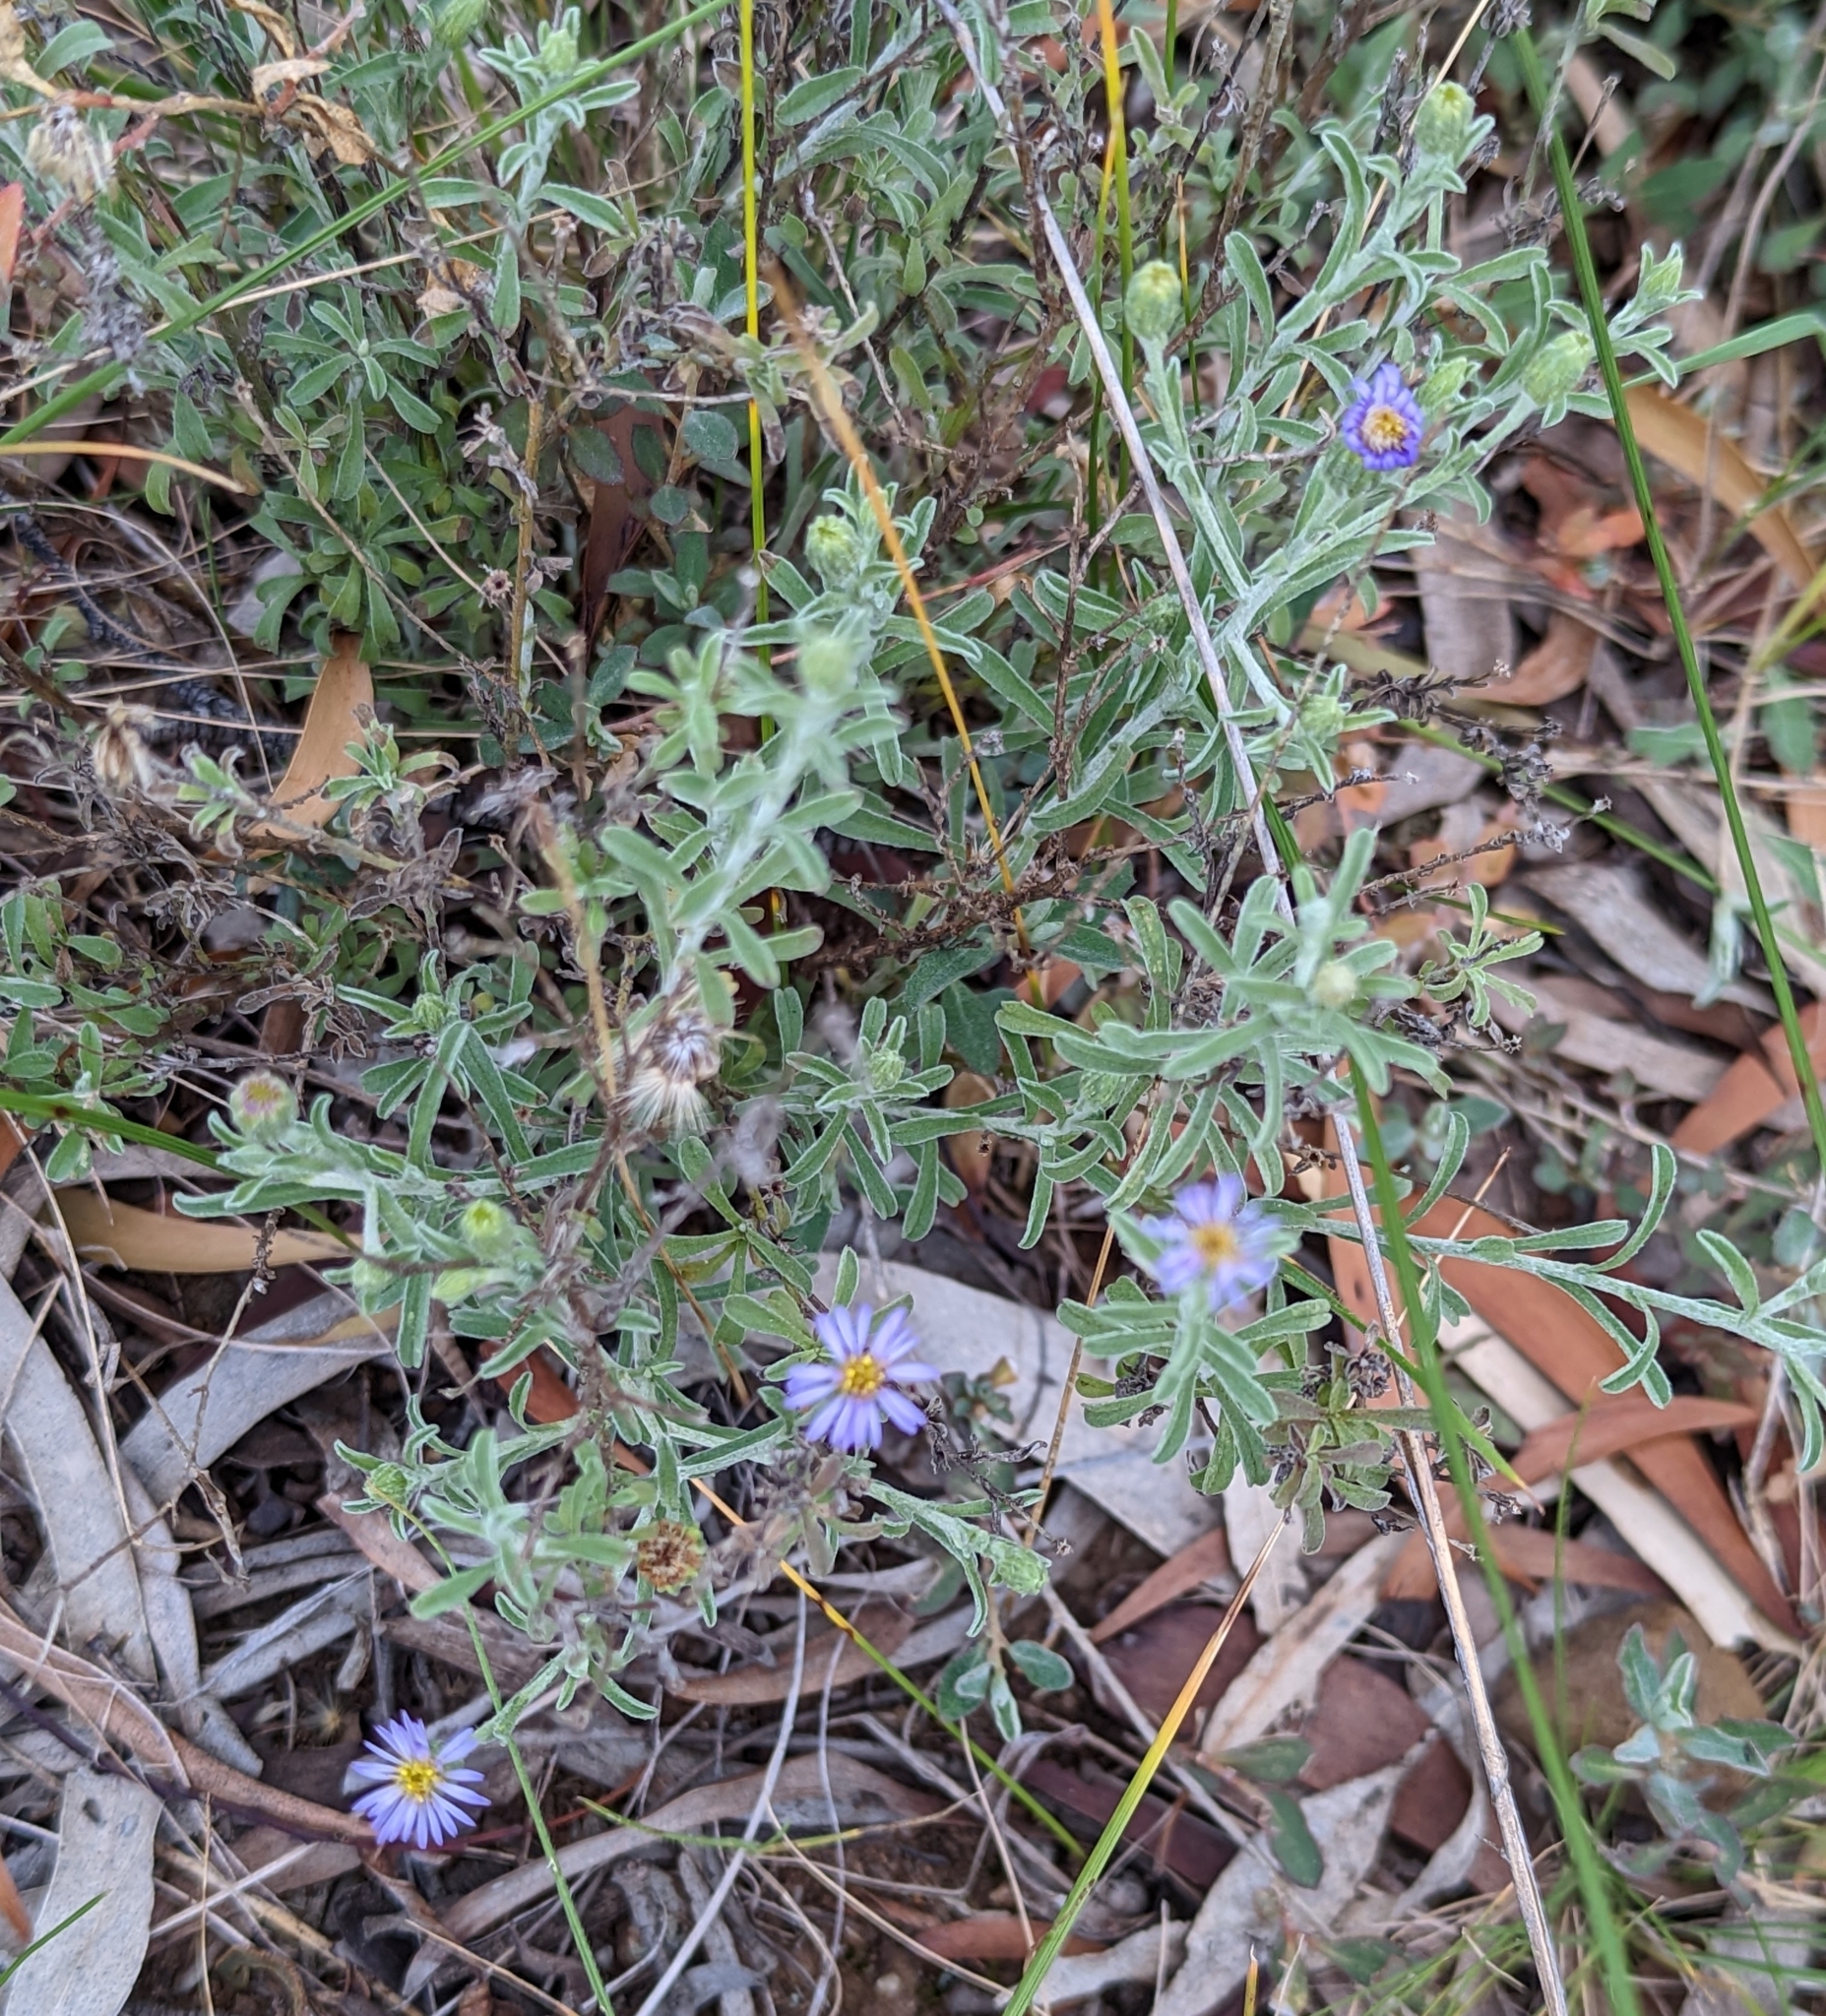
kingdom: Plantae
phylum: Tracheophyta
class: Magnoliopsida
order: Asterales
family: Asteraceae
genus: Vittadinia
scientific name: Vittadinia gracilis
